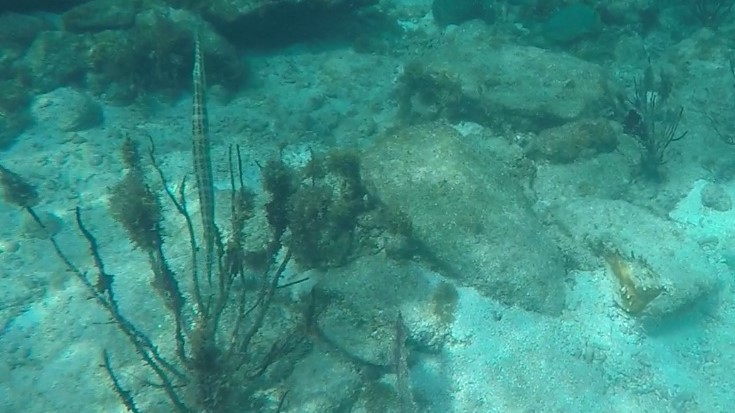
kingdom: Animalia
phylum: Chordata
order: Syngnathiformes
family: Aulostomidae
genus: Aulostomus
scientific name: Aulostomus maculatus
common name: West atlantic trumpetfish
